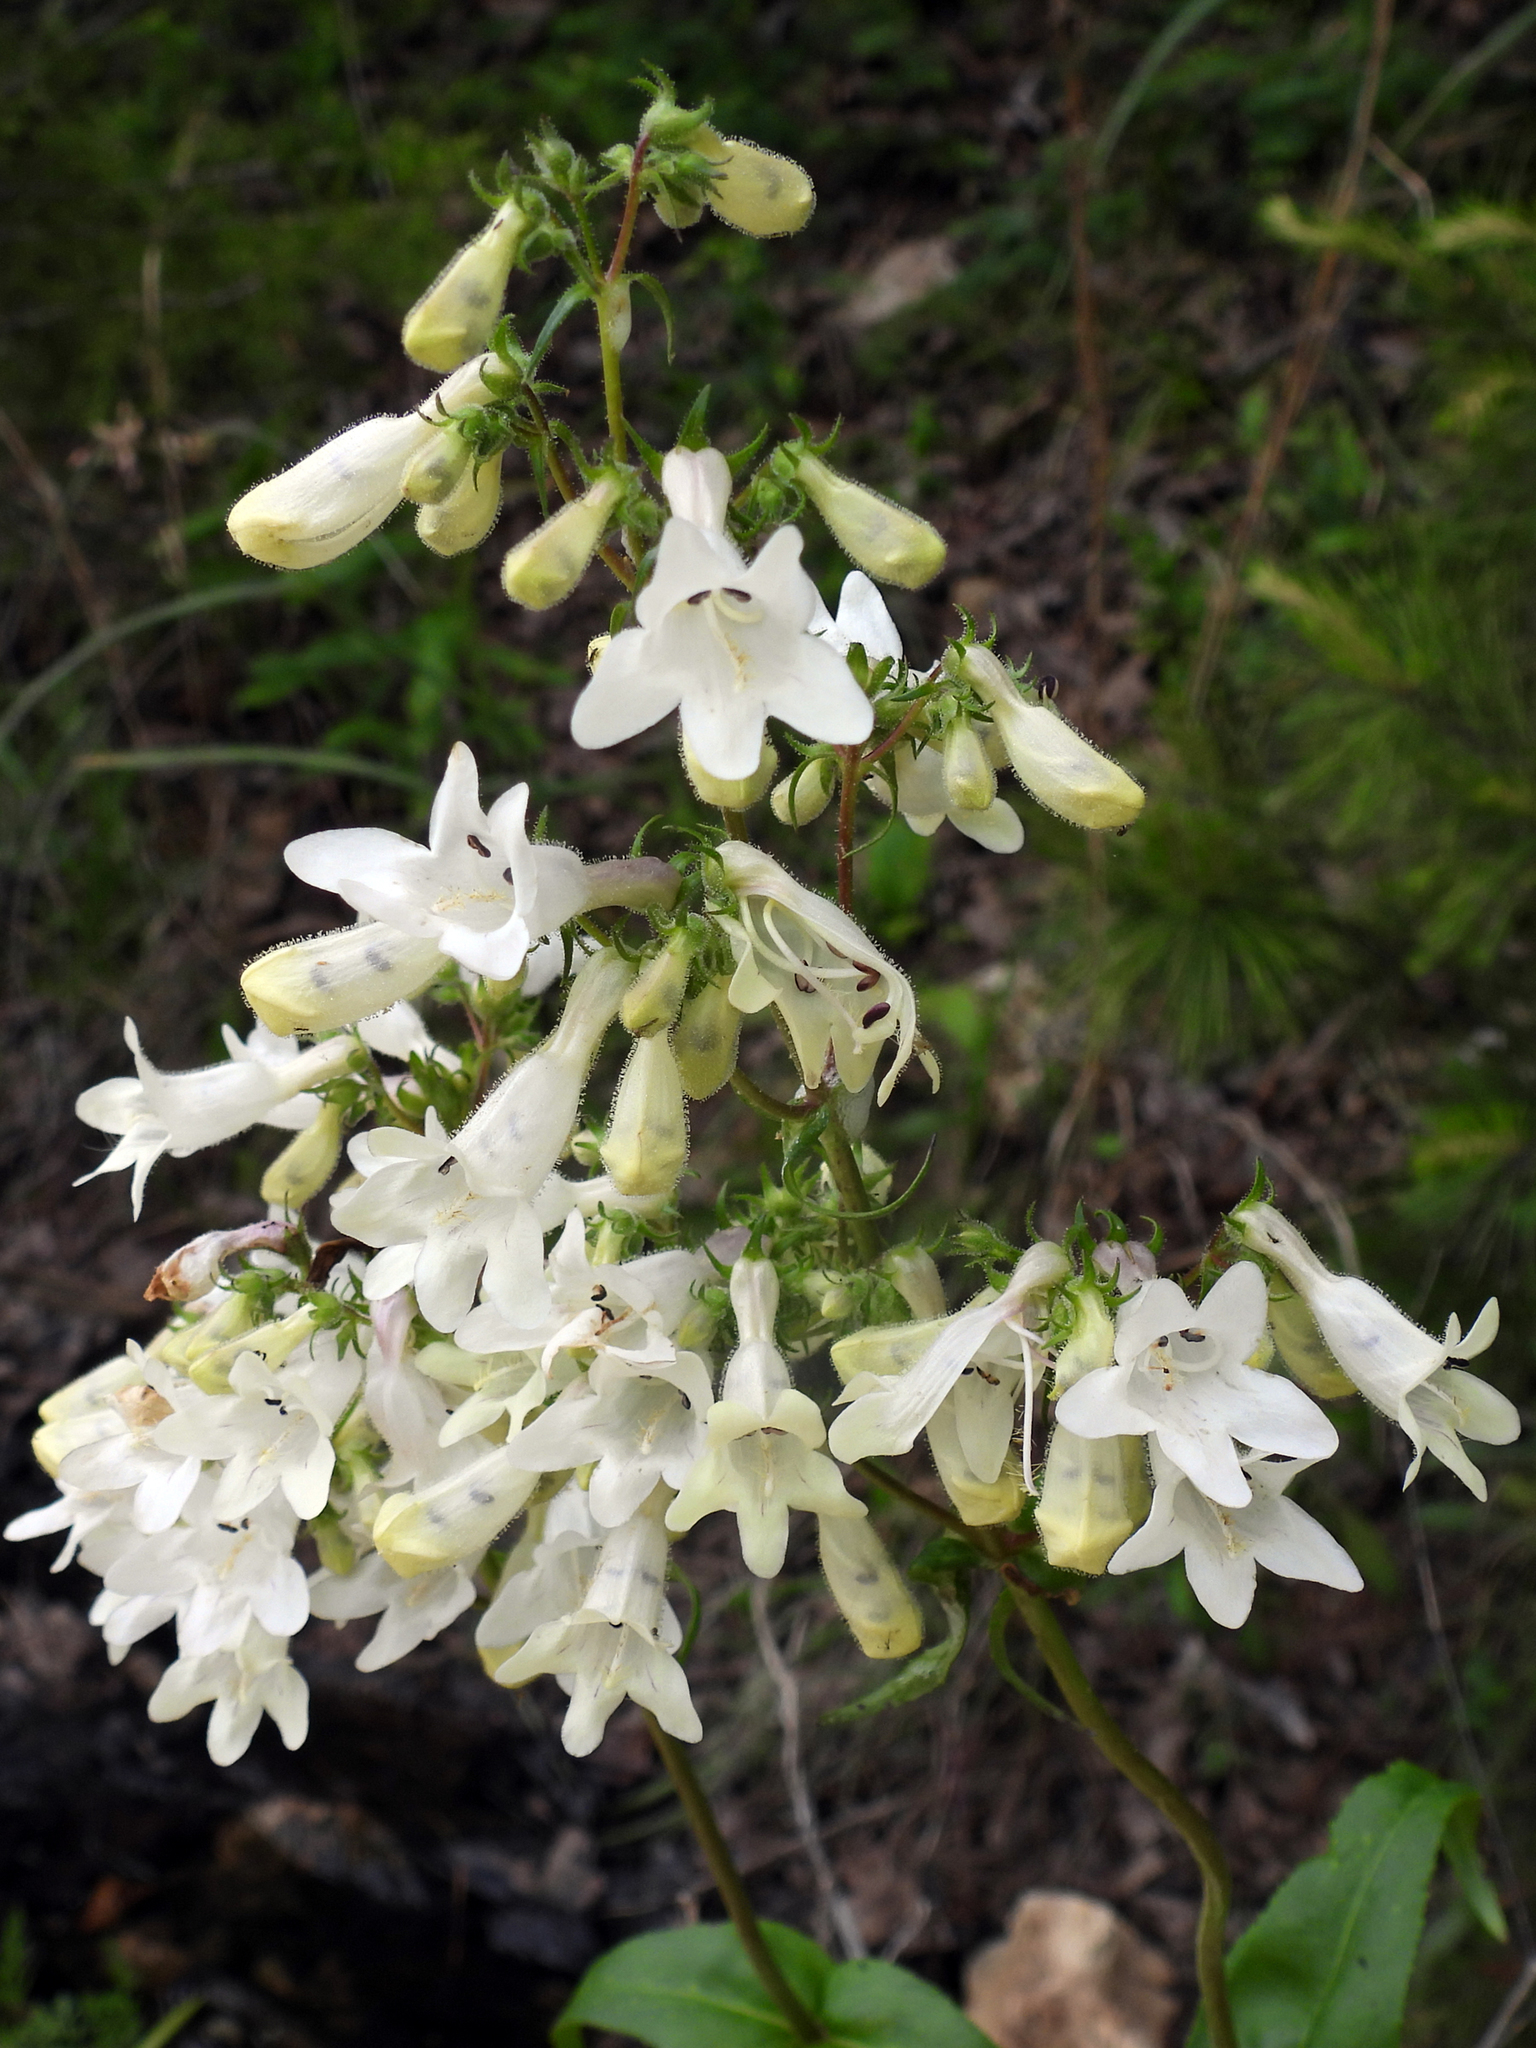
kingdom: Plantae
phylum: Tracheophyta
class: Magnoliopsida
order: Lamiales
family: Plantaginaceae
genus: Penstemon
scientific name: Penstemon digitalis
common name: Foxglove beardtongue
